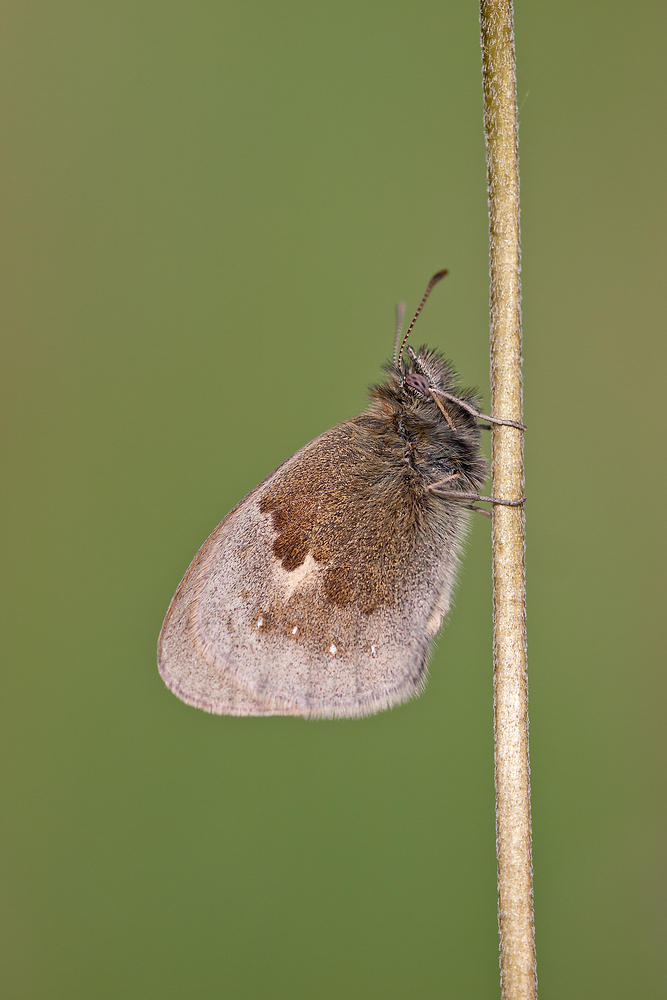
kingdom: Animalia
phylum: Arthropoda
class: Insecta
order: Lepidoptera
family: Nymphalidae
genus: Coenonympha
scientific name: Coenonympha pamphilus
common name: Small heath
